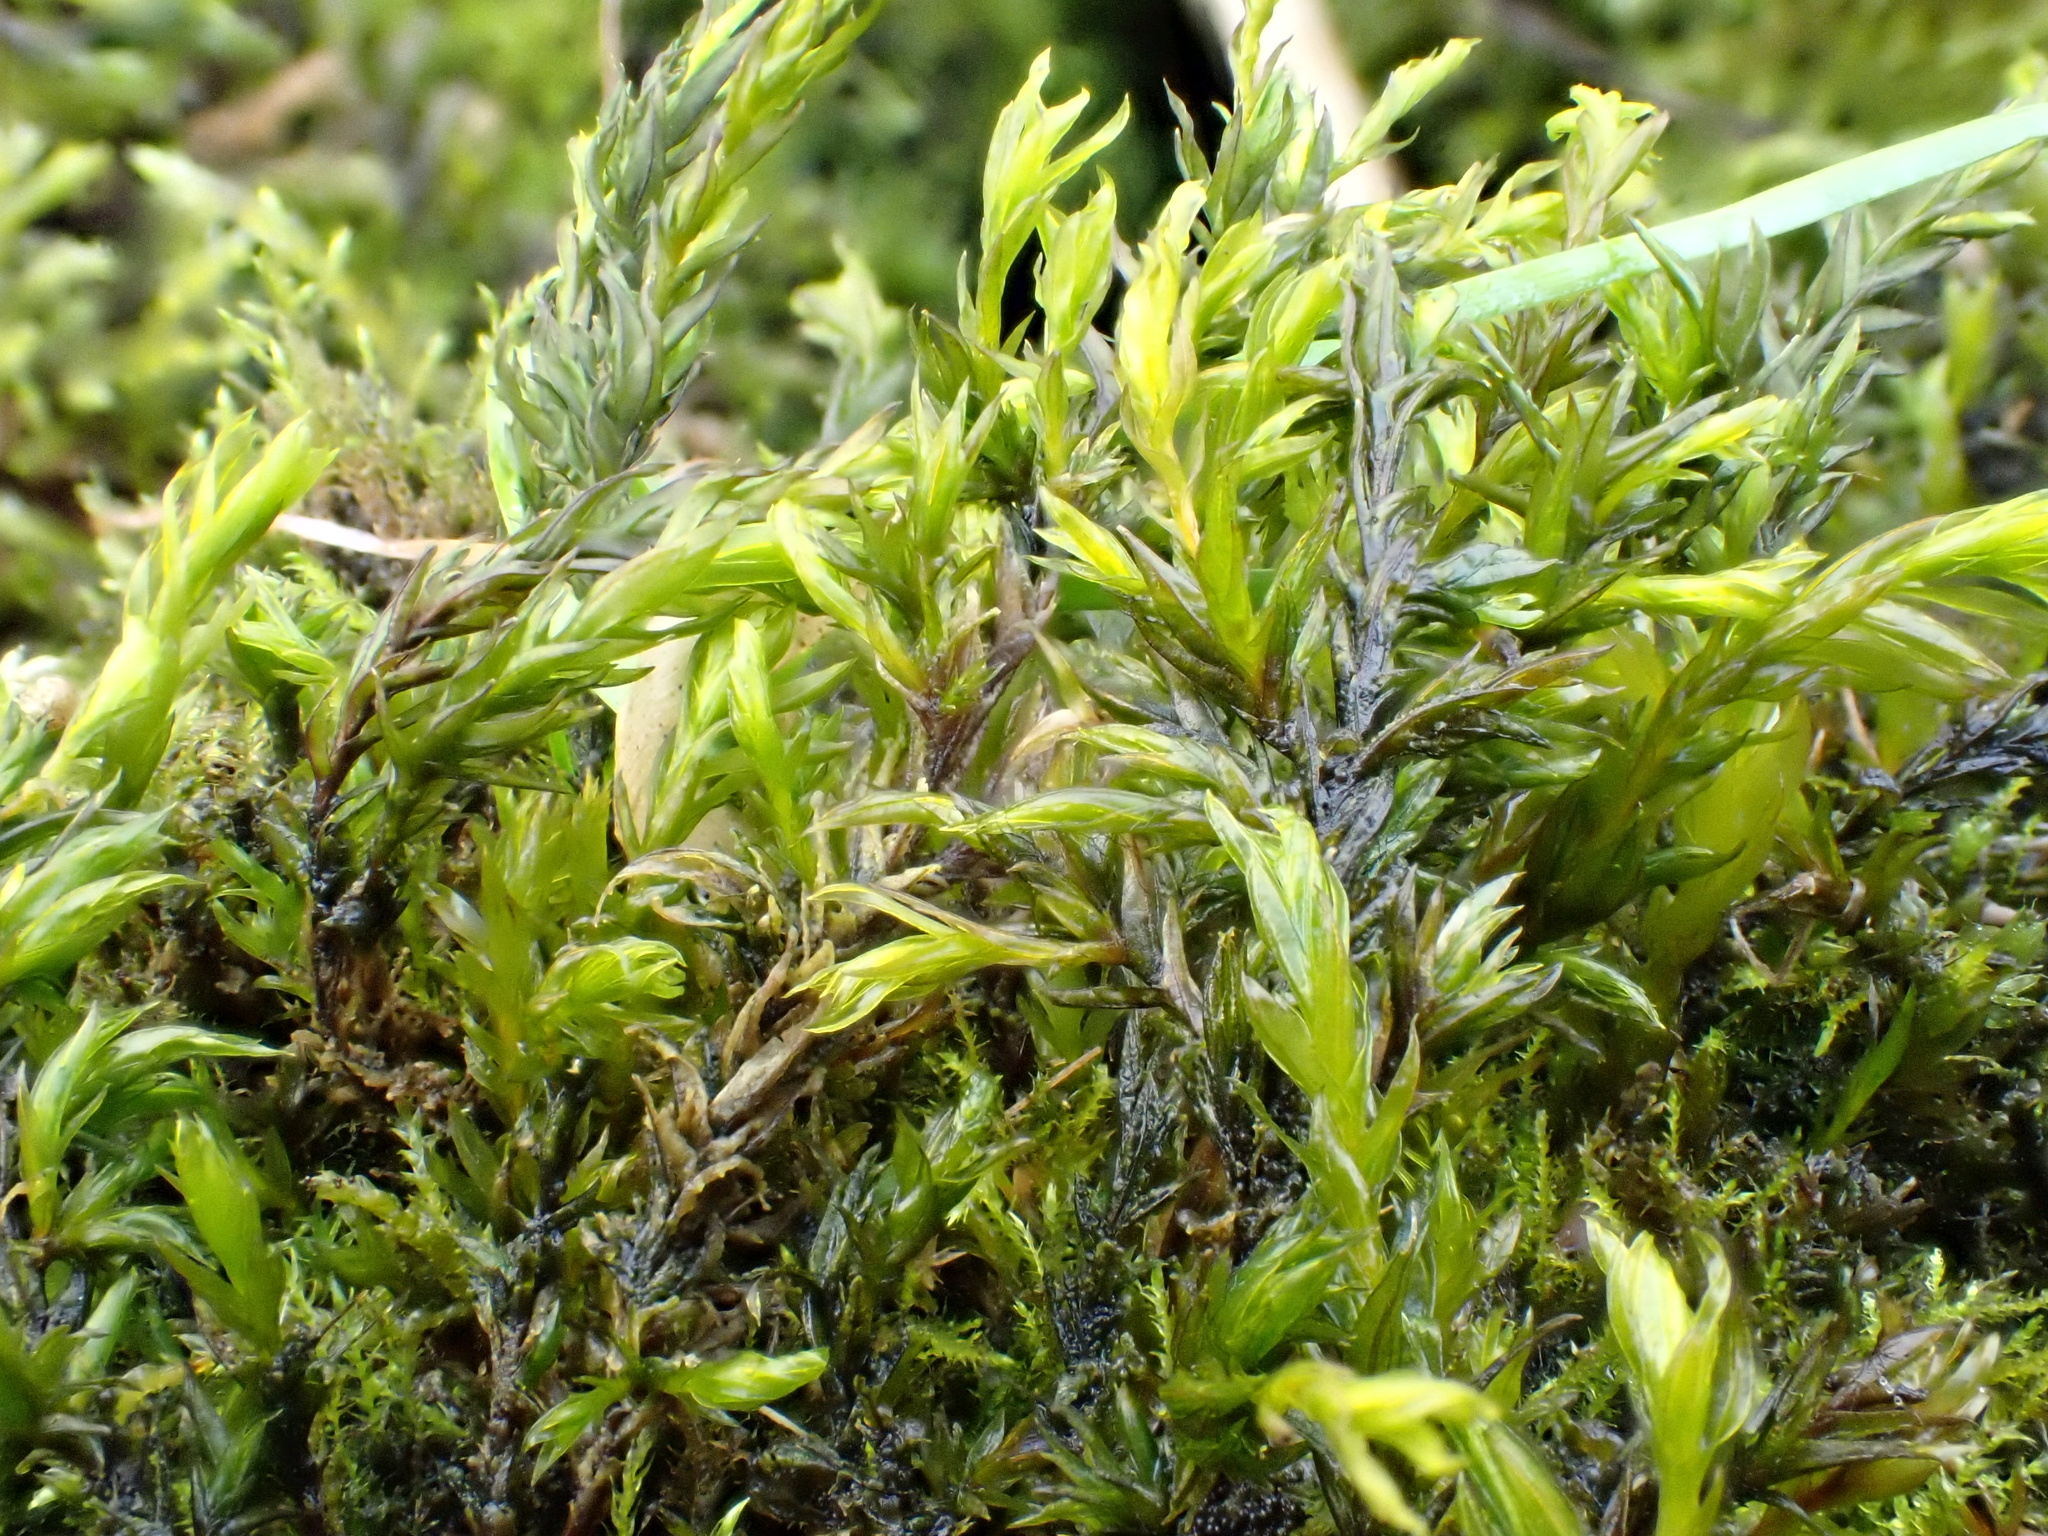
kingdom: Plantae
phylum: Bryophyta
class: Bryopsida
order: Pottiales
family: Pottiaceae
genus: Cinclidotus
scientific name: Cinclidotus fontinaloides
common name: Smaller lattice-moss
